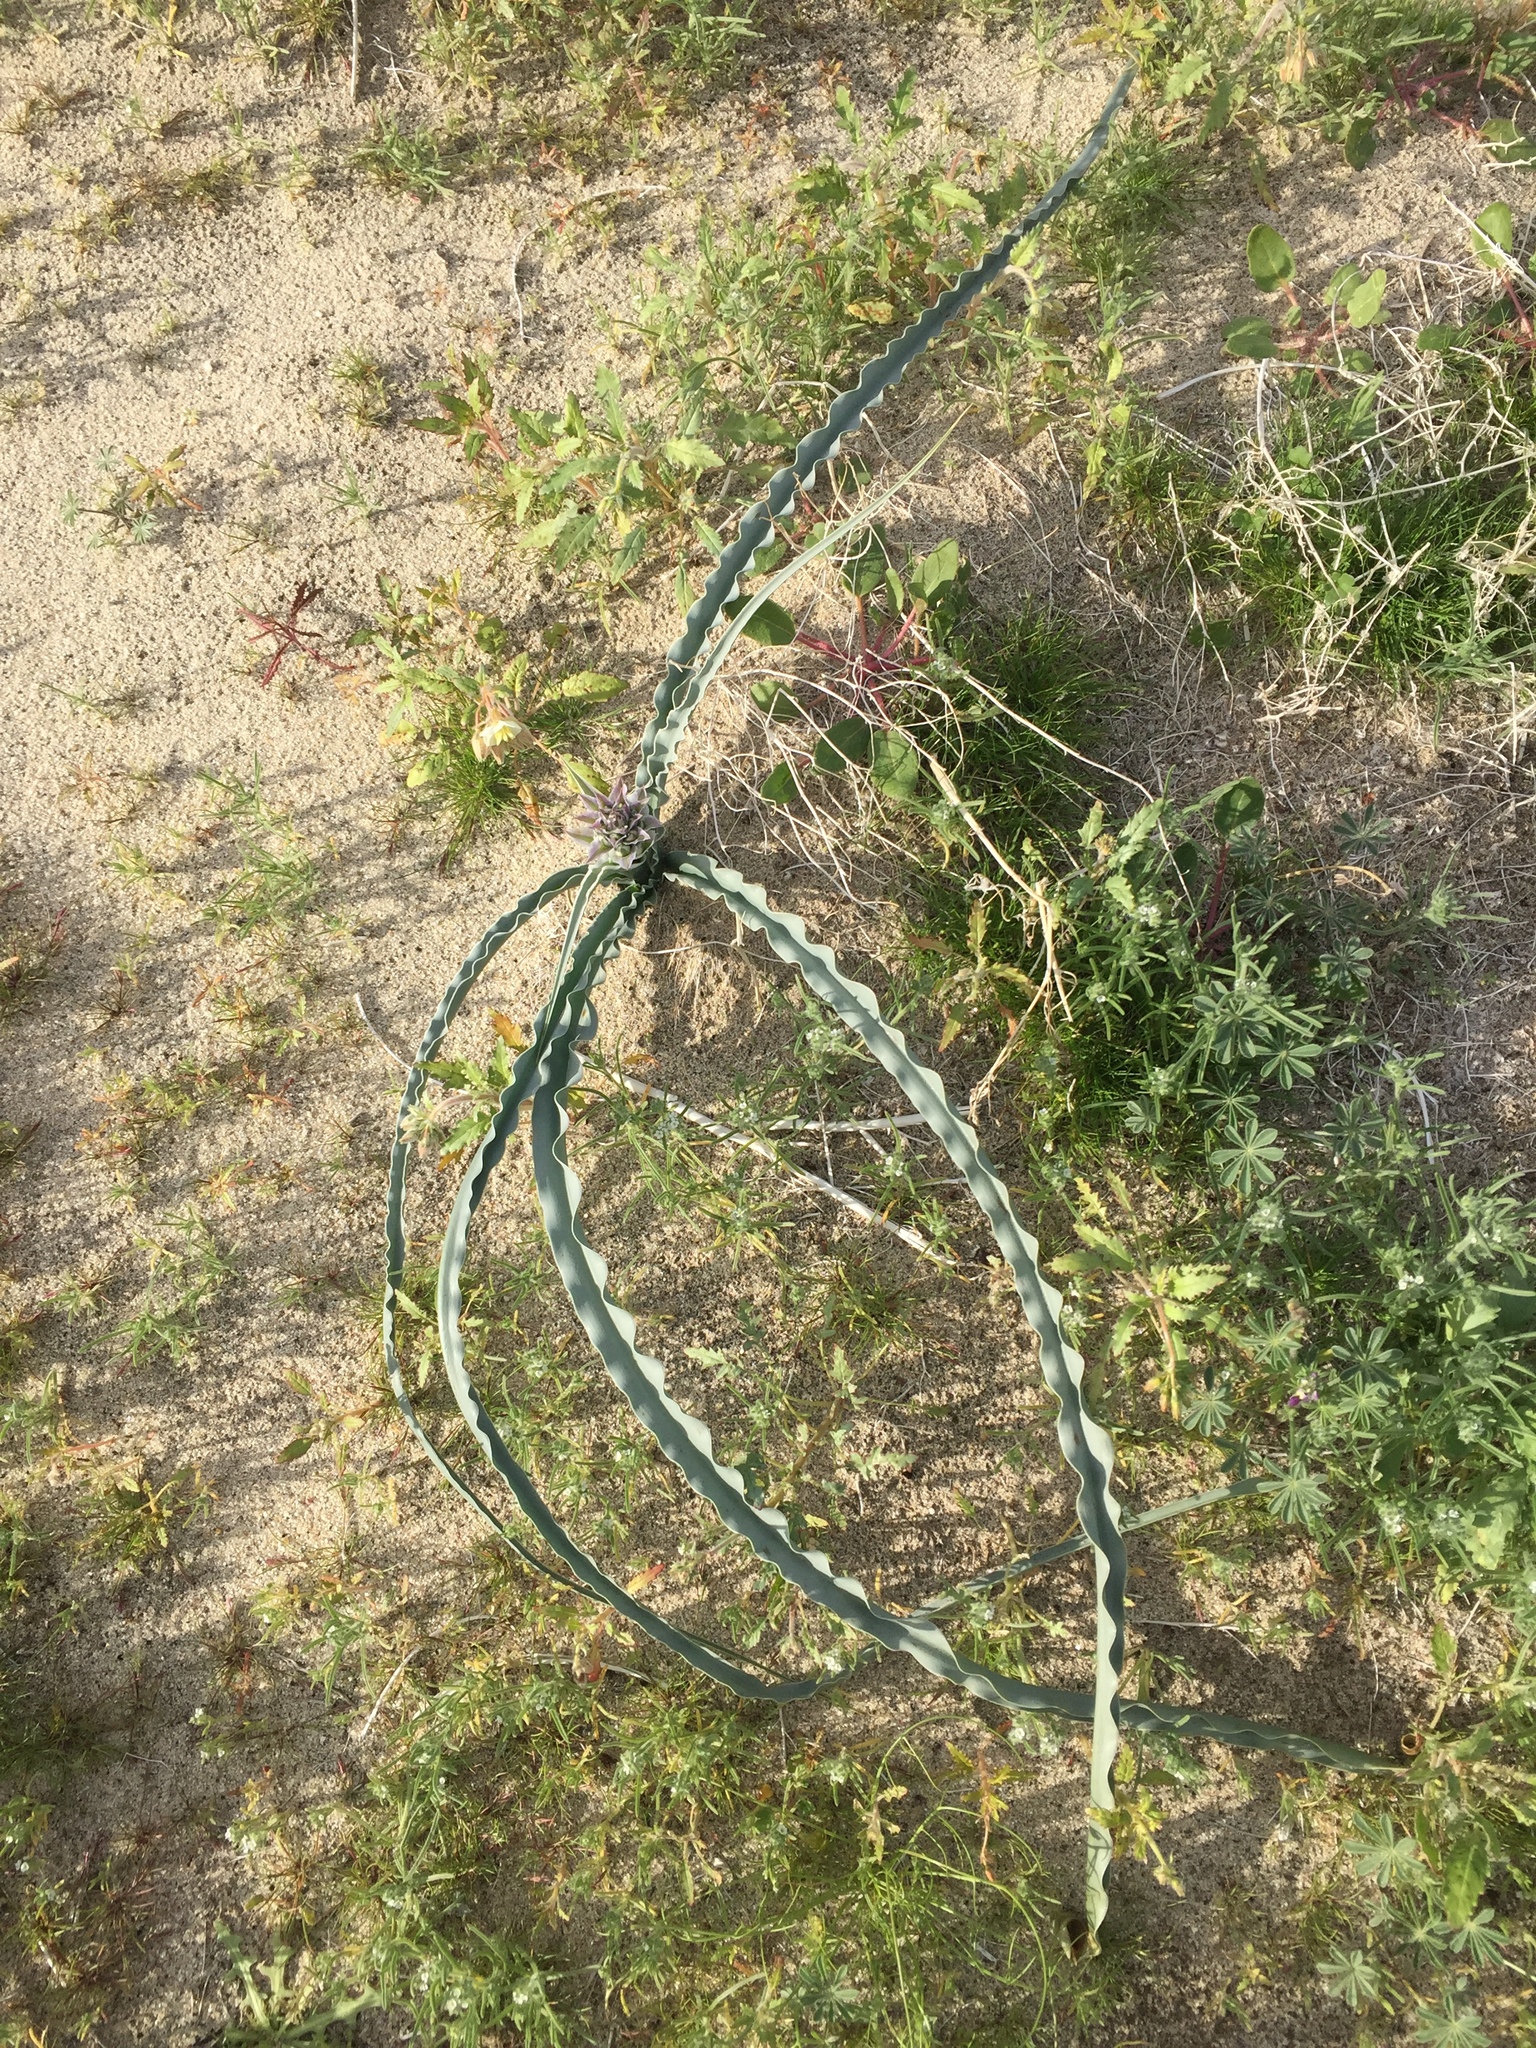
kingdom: Plantae
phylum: Tracheophyta
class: Liliopsida
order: Asparagales
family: Asparagaceae
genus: Hesperocallis
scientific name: Hesperocallis undulata
